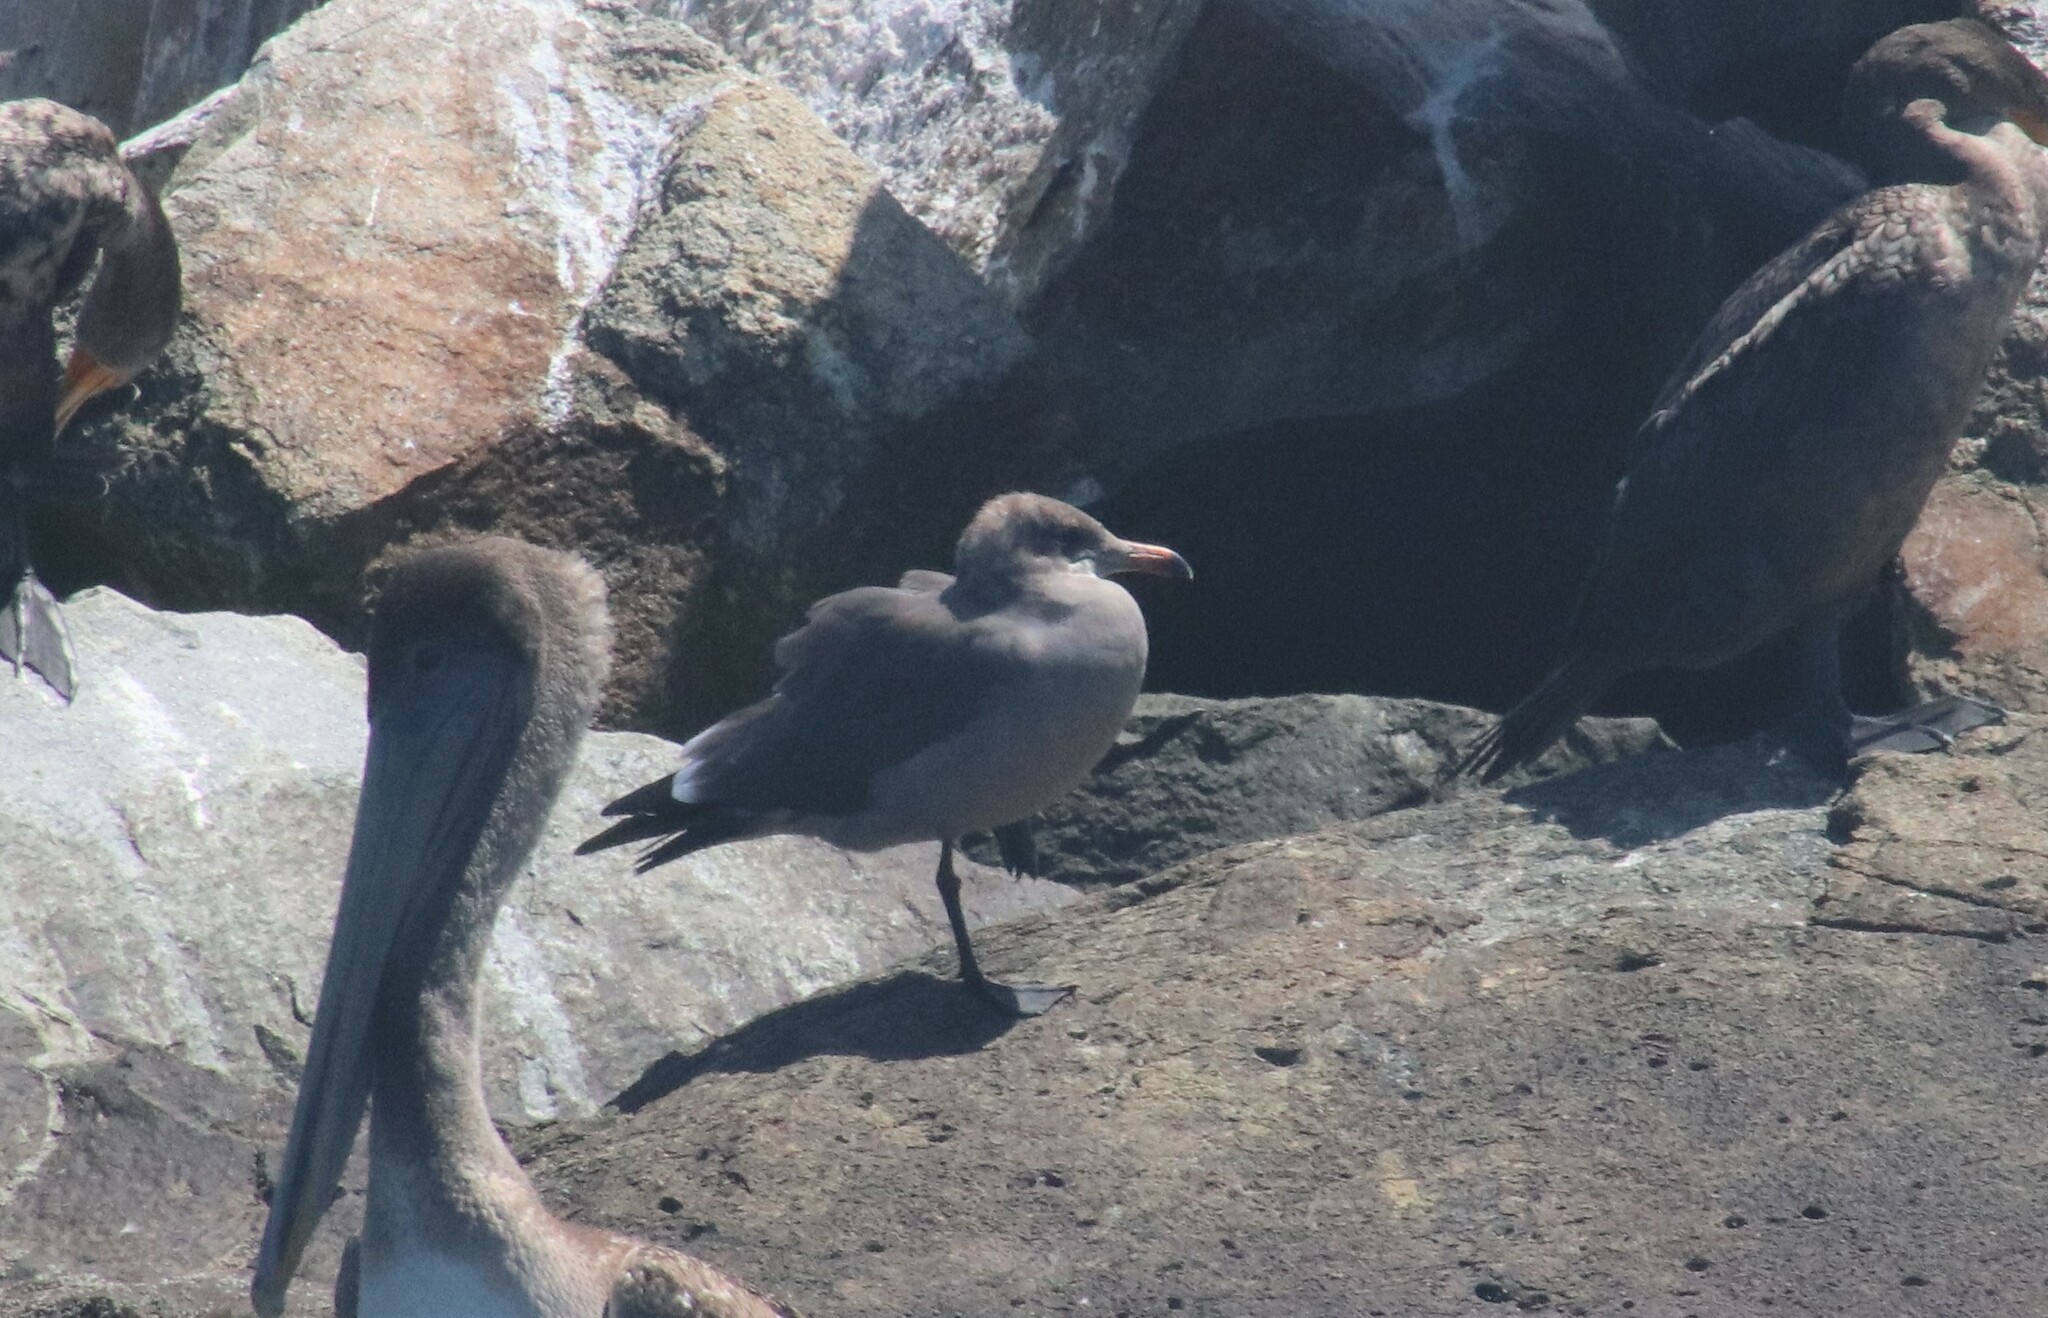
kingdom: Animalia
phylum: Chordata
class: Aves
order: Charadriiformes
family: Laridae
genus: Larus
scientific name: Larus heermanni
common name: Heermann's gull
